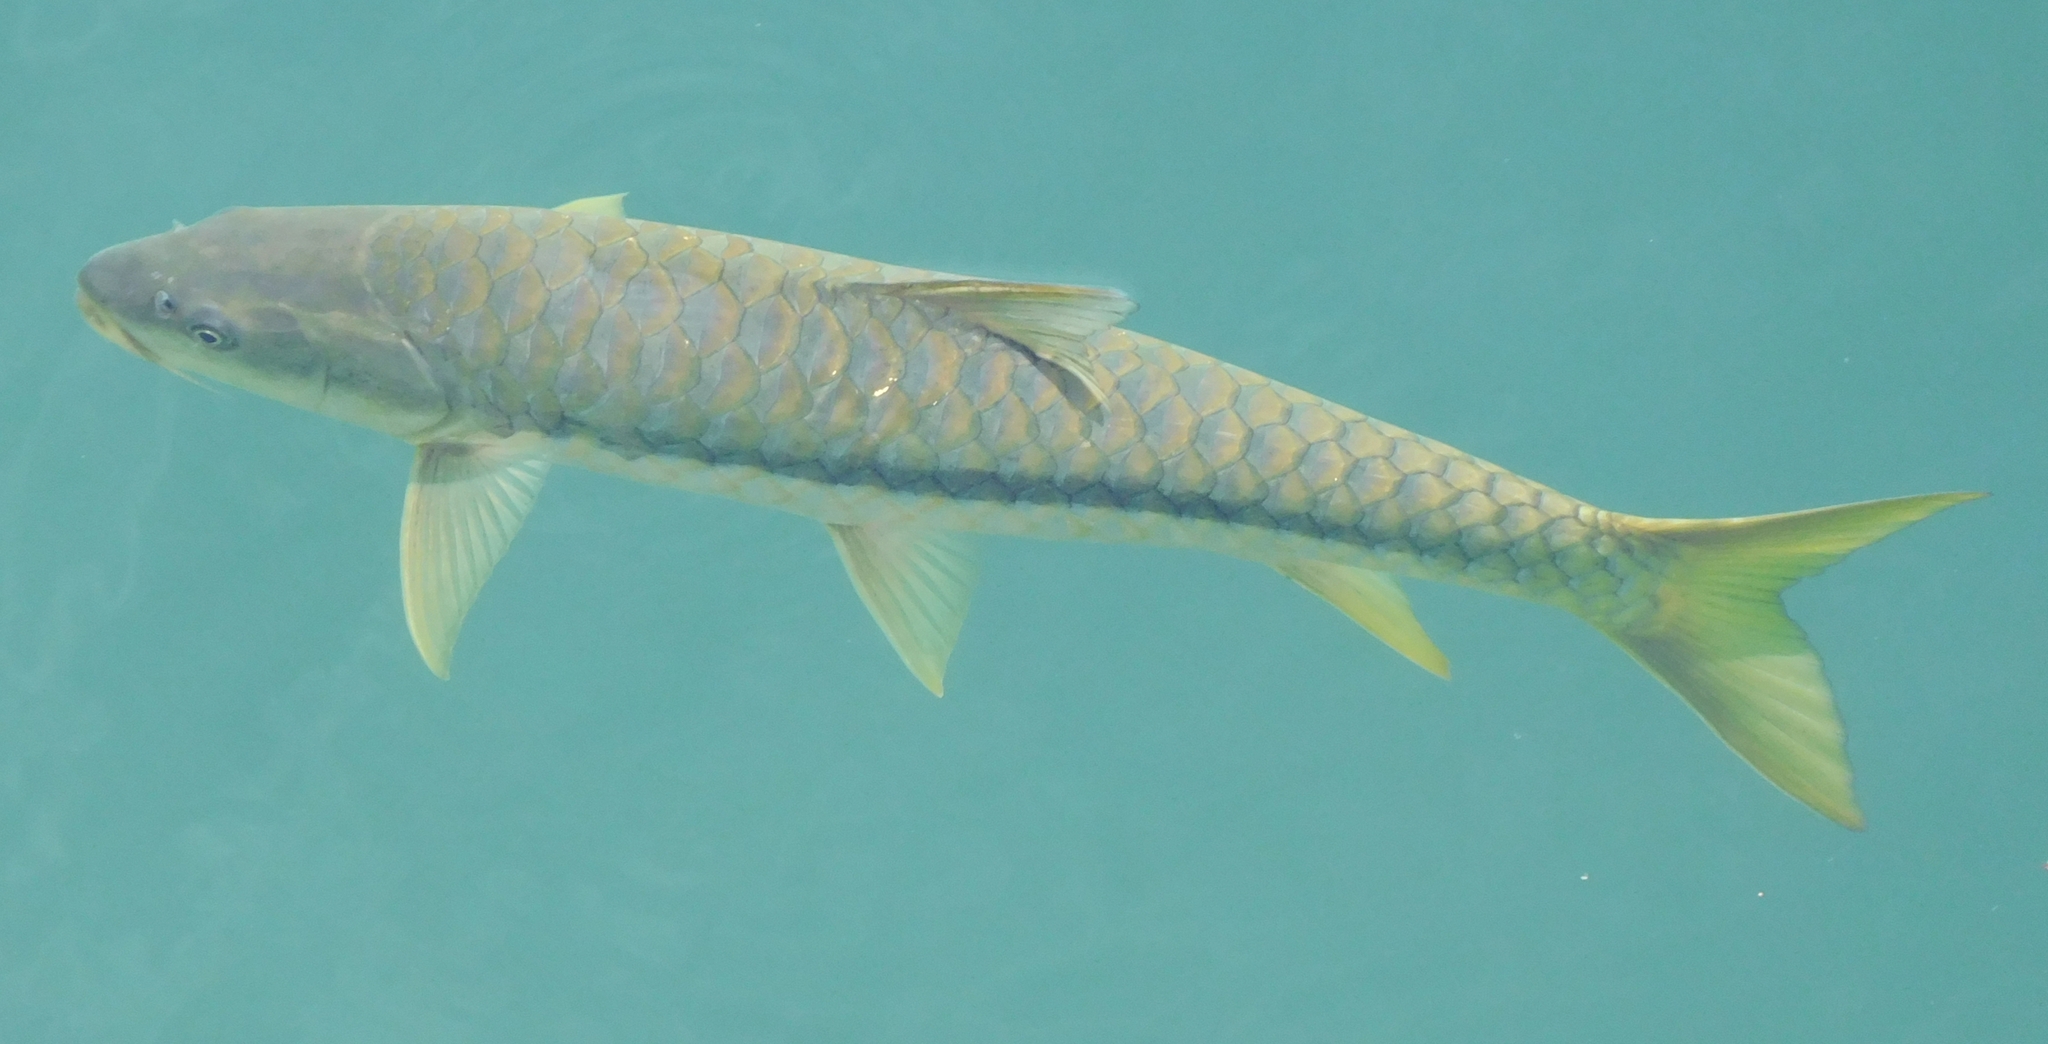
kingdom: Animalia
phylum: Chordata
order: Cypriniformes
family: Cyprinidae
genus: Tor
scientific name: Tor putitora
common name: Putitor mahseer
